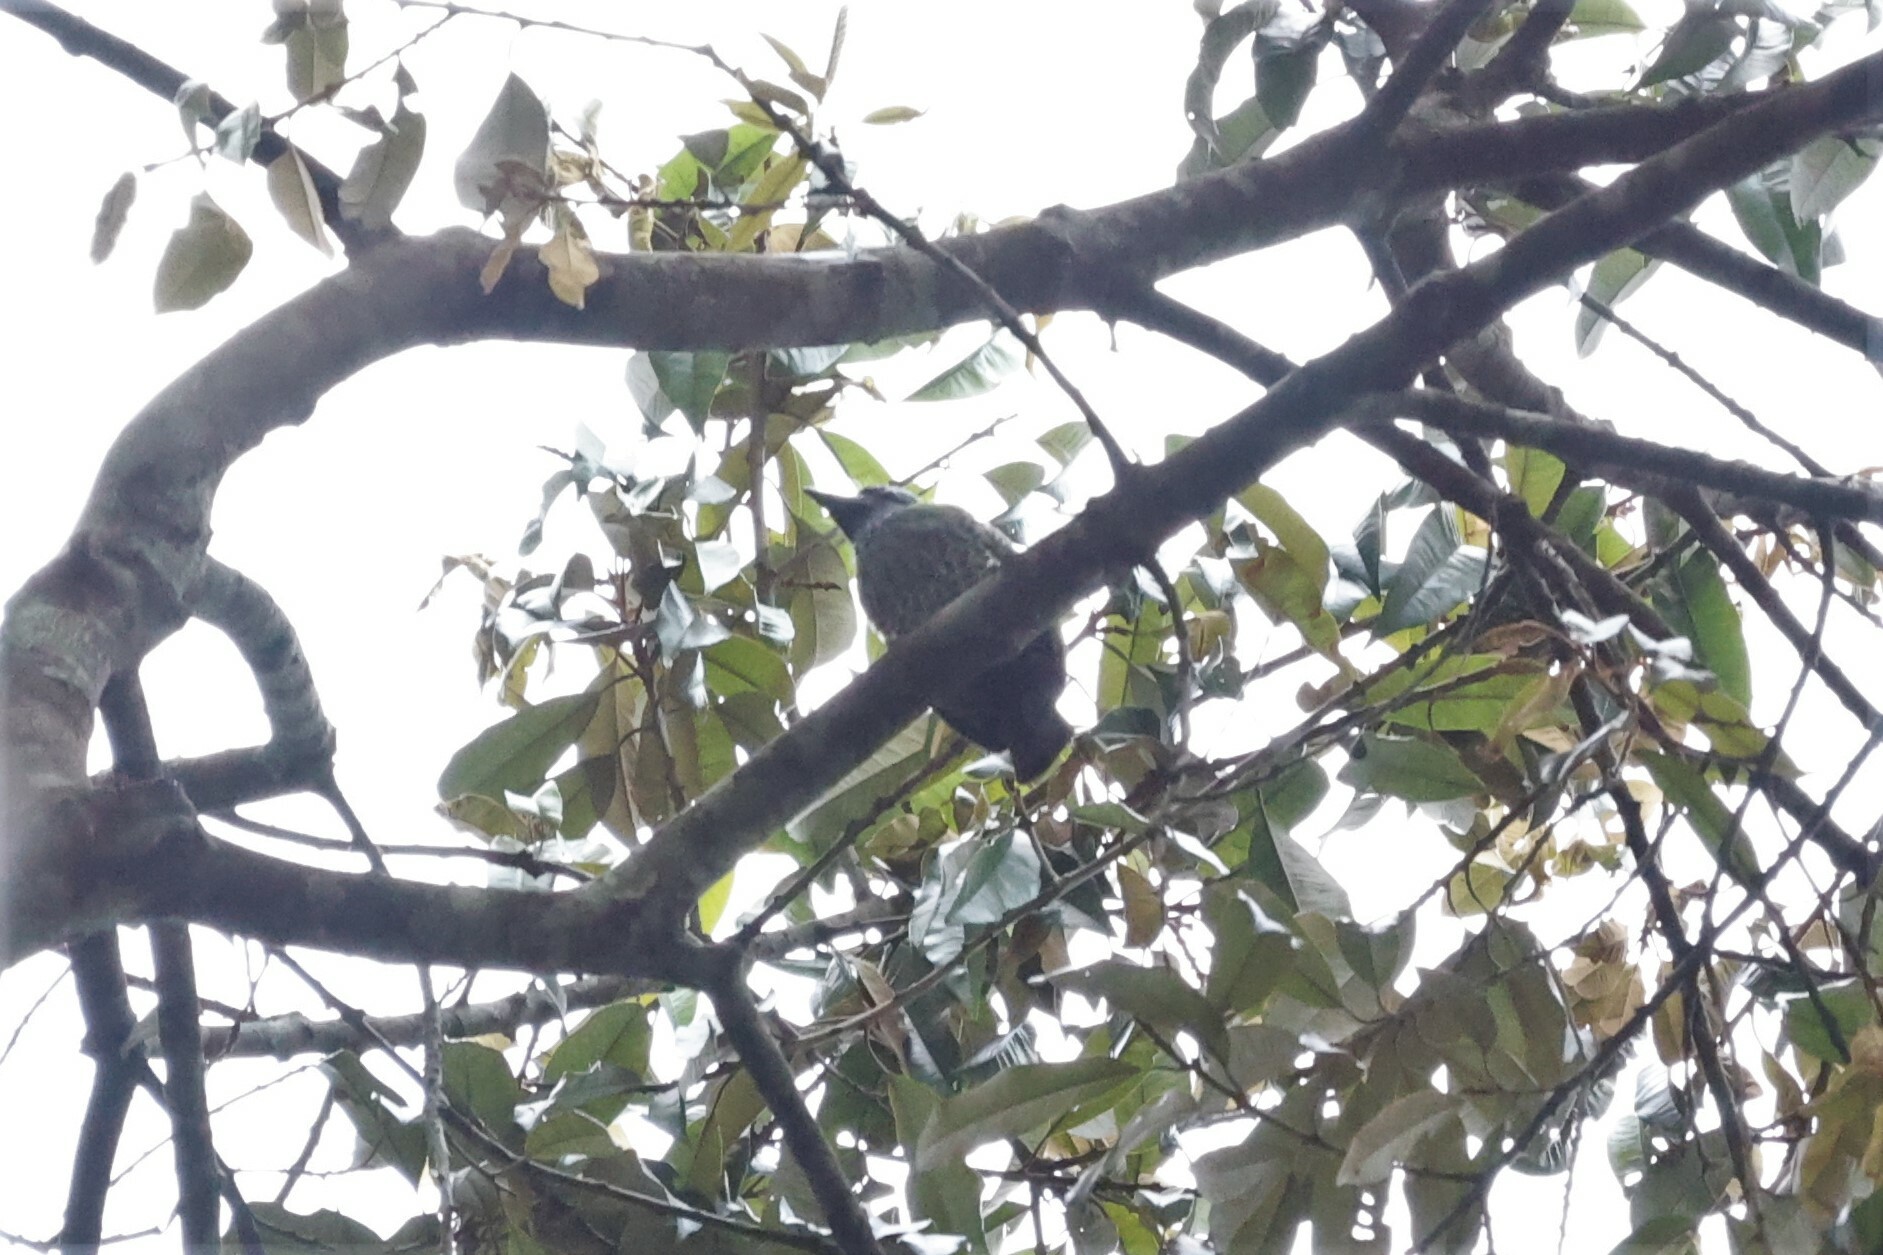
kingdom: Animalia
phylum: Chordata
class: Aves
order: Piciformes
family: Lybiidae
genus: Tricholaema
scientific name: Tricholaema hirsuta
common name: Hairy-breasted barbet
